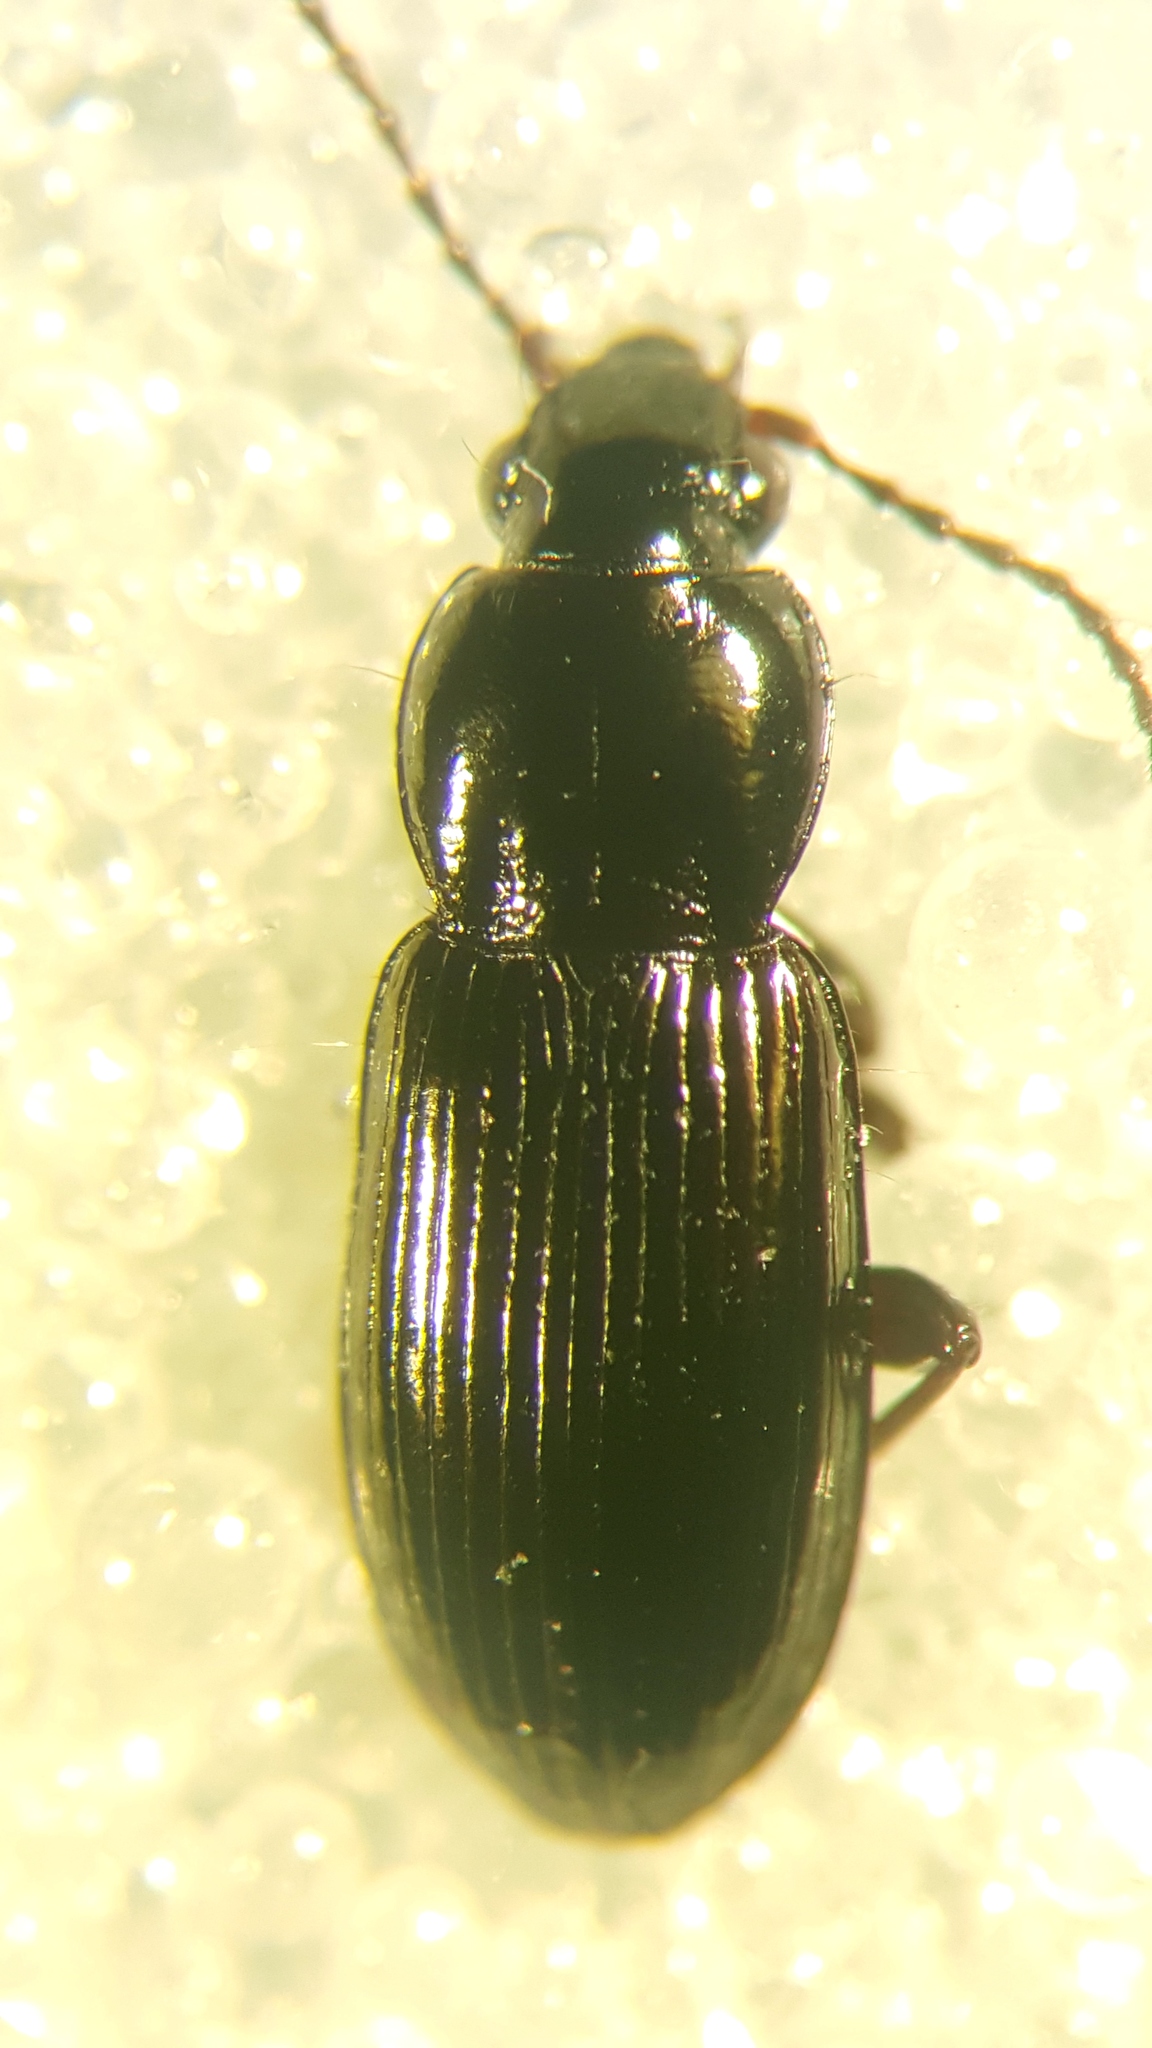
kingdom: Animalia
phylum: Arthropoda
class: Insecta
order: Coleoptera
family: Carabidae
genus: Pterostichus
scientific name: Pterostichus diligens
